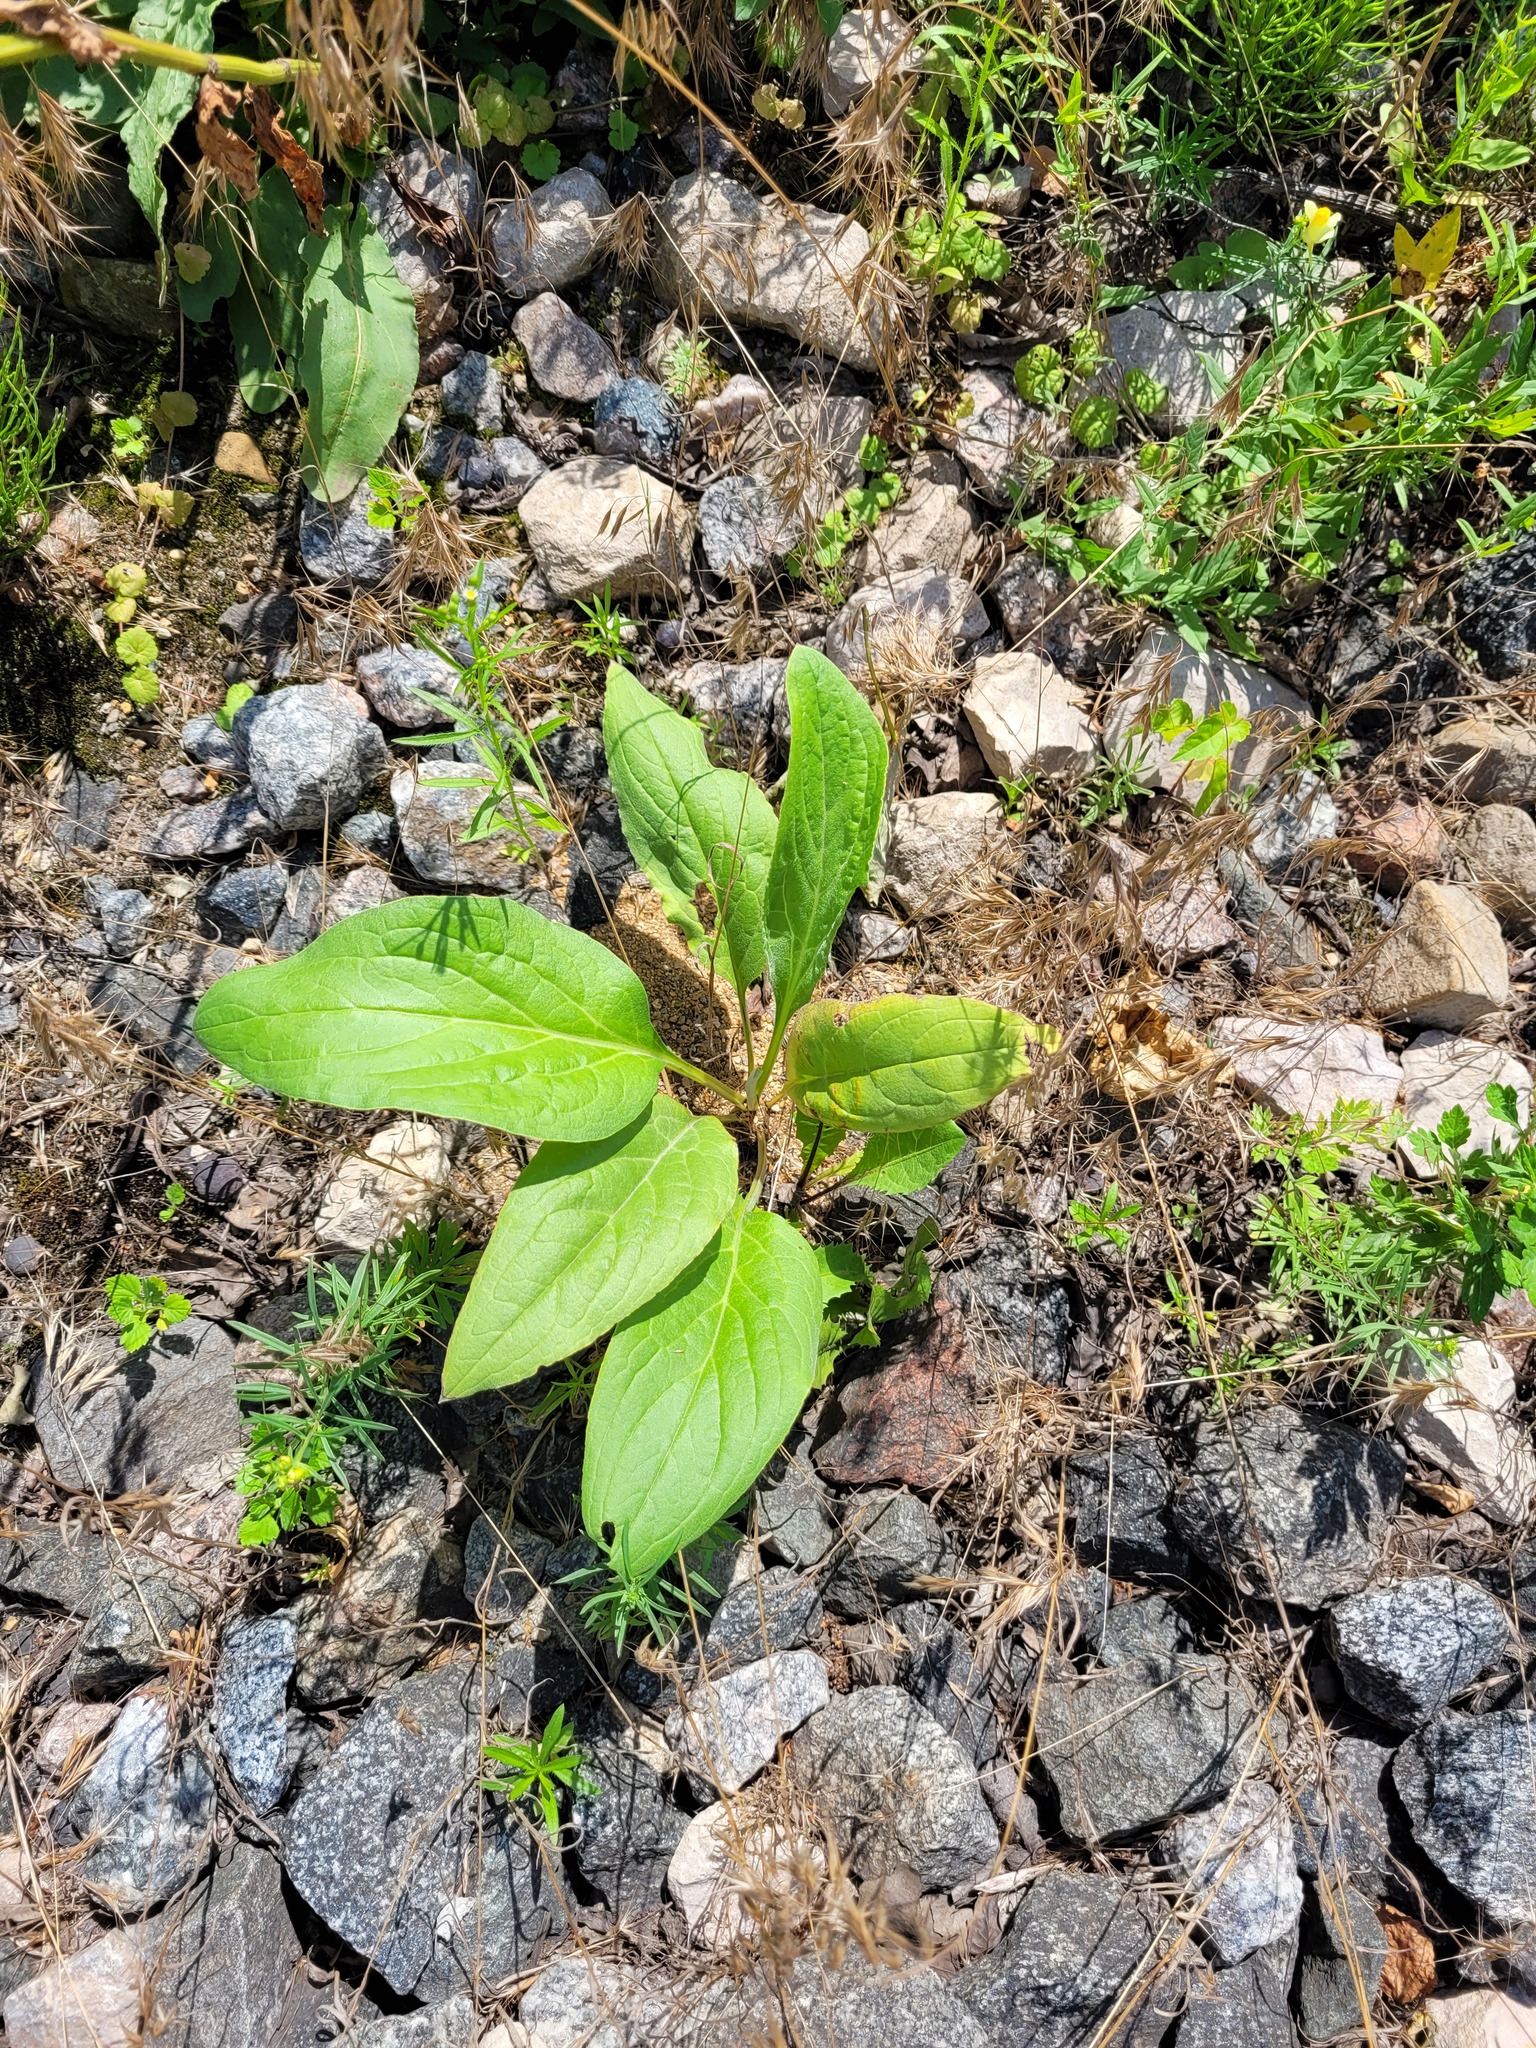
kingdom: Plantae
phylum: Tracheophyta
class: Magnoliopsida
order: Boraginales
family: Boraginaceae
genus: Cynoglossum
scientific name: Cynoglossum officinale
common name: Hound's-tongue
